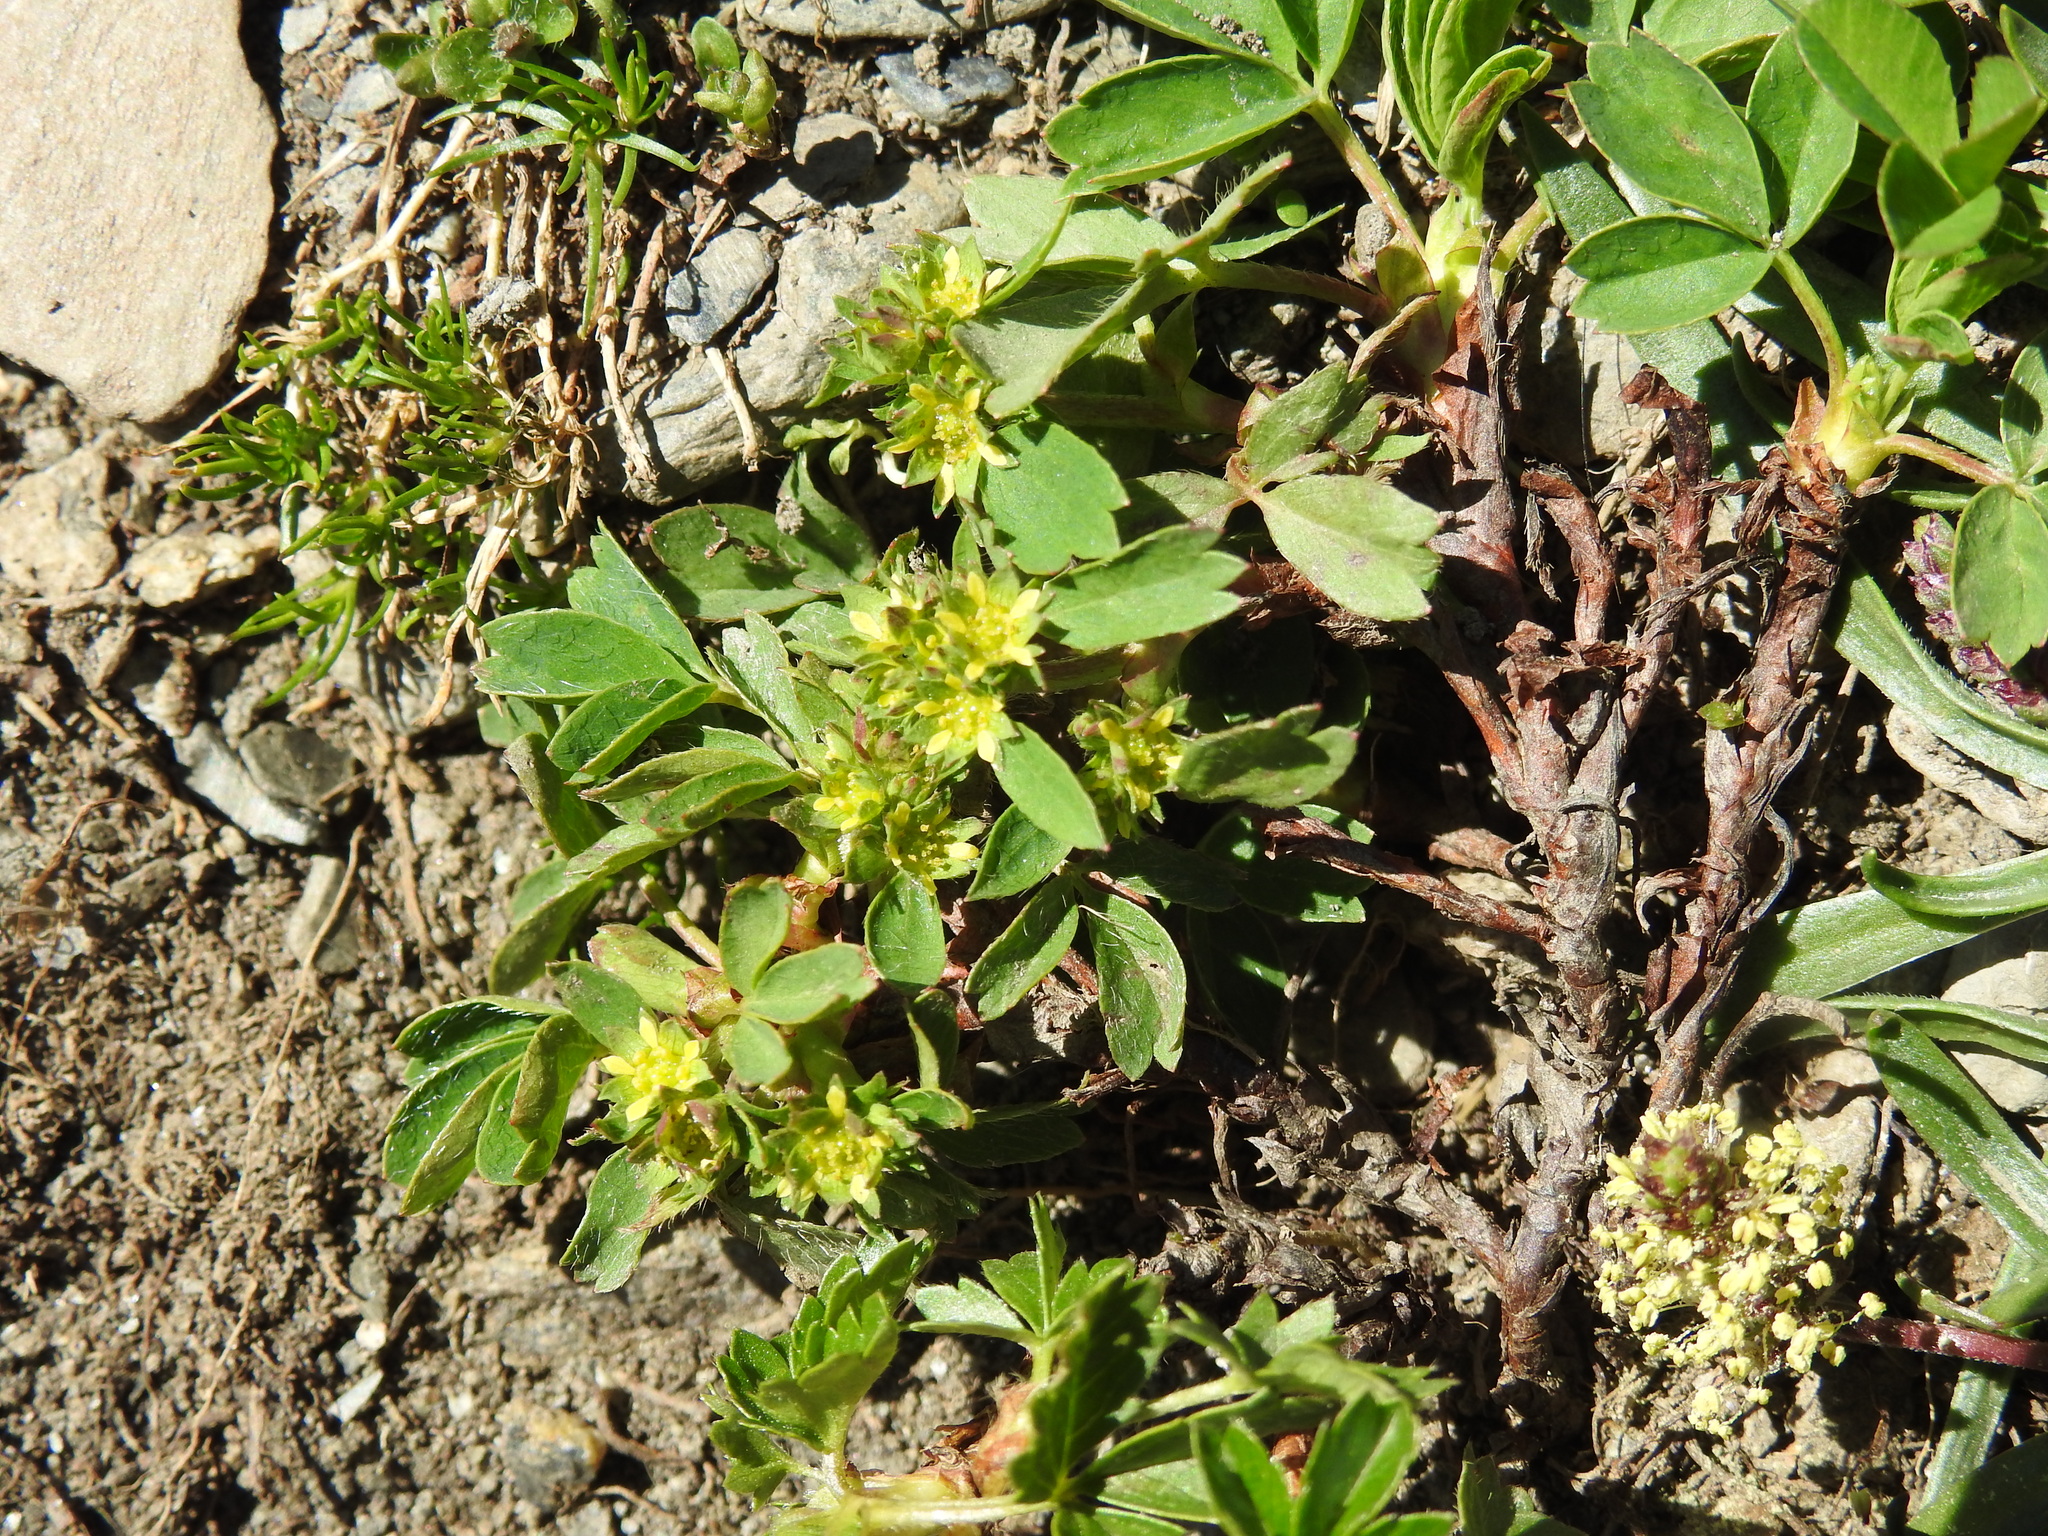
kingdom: Plantae
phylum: Tracheophyta
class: Magnoliopsida
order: Rosales
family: Rosaceae
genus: Sibbaldia
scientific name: Sibbaldia procumbens
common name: Creeping sibbaldia
